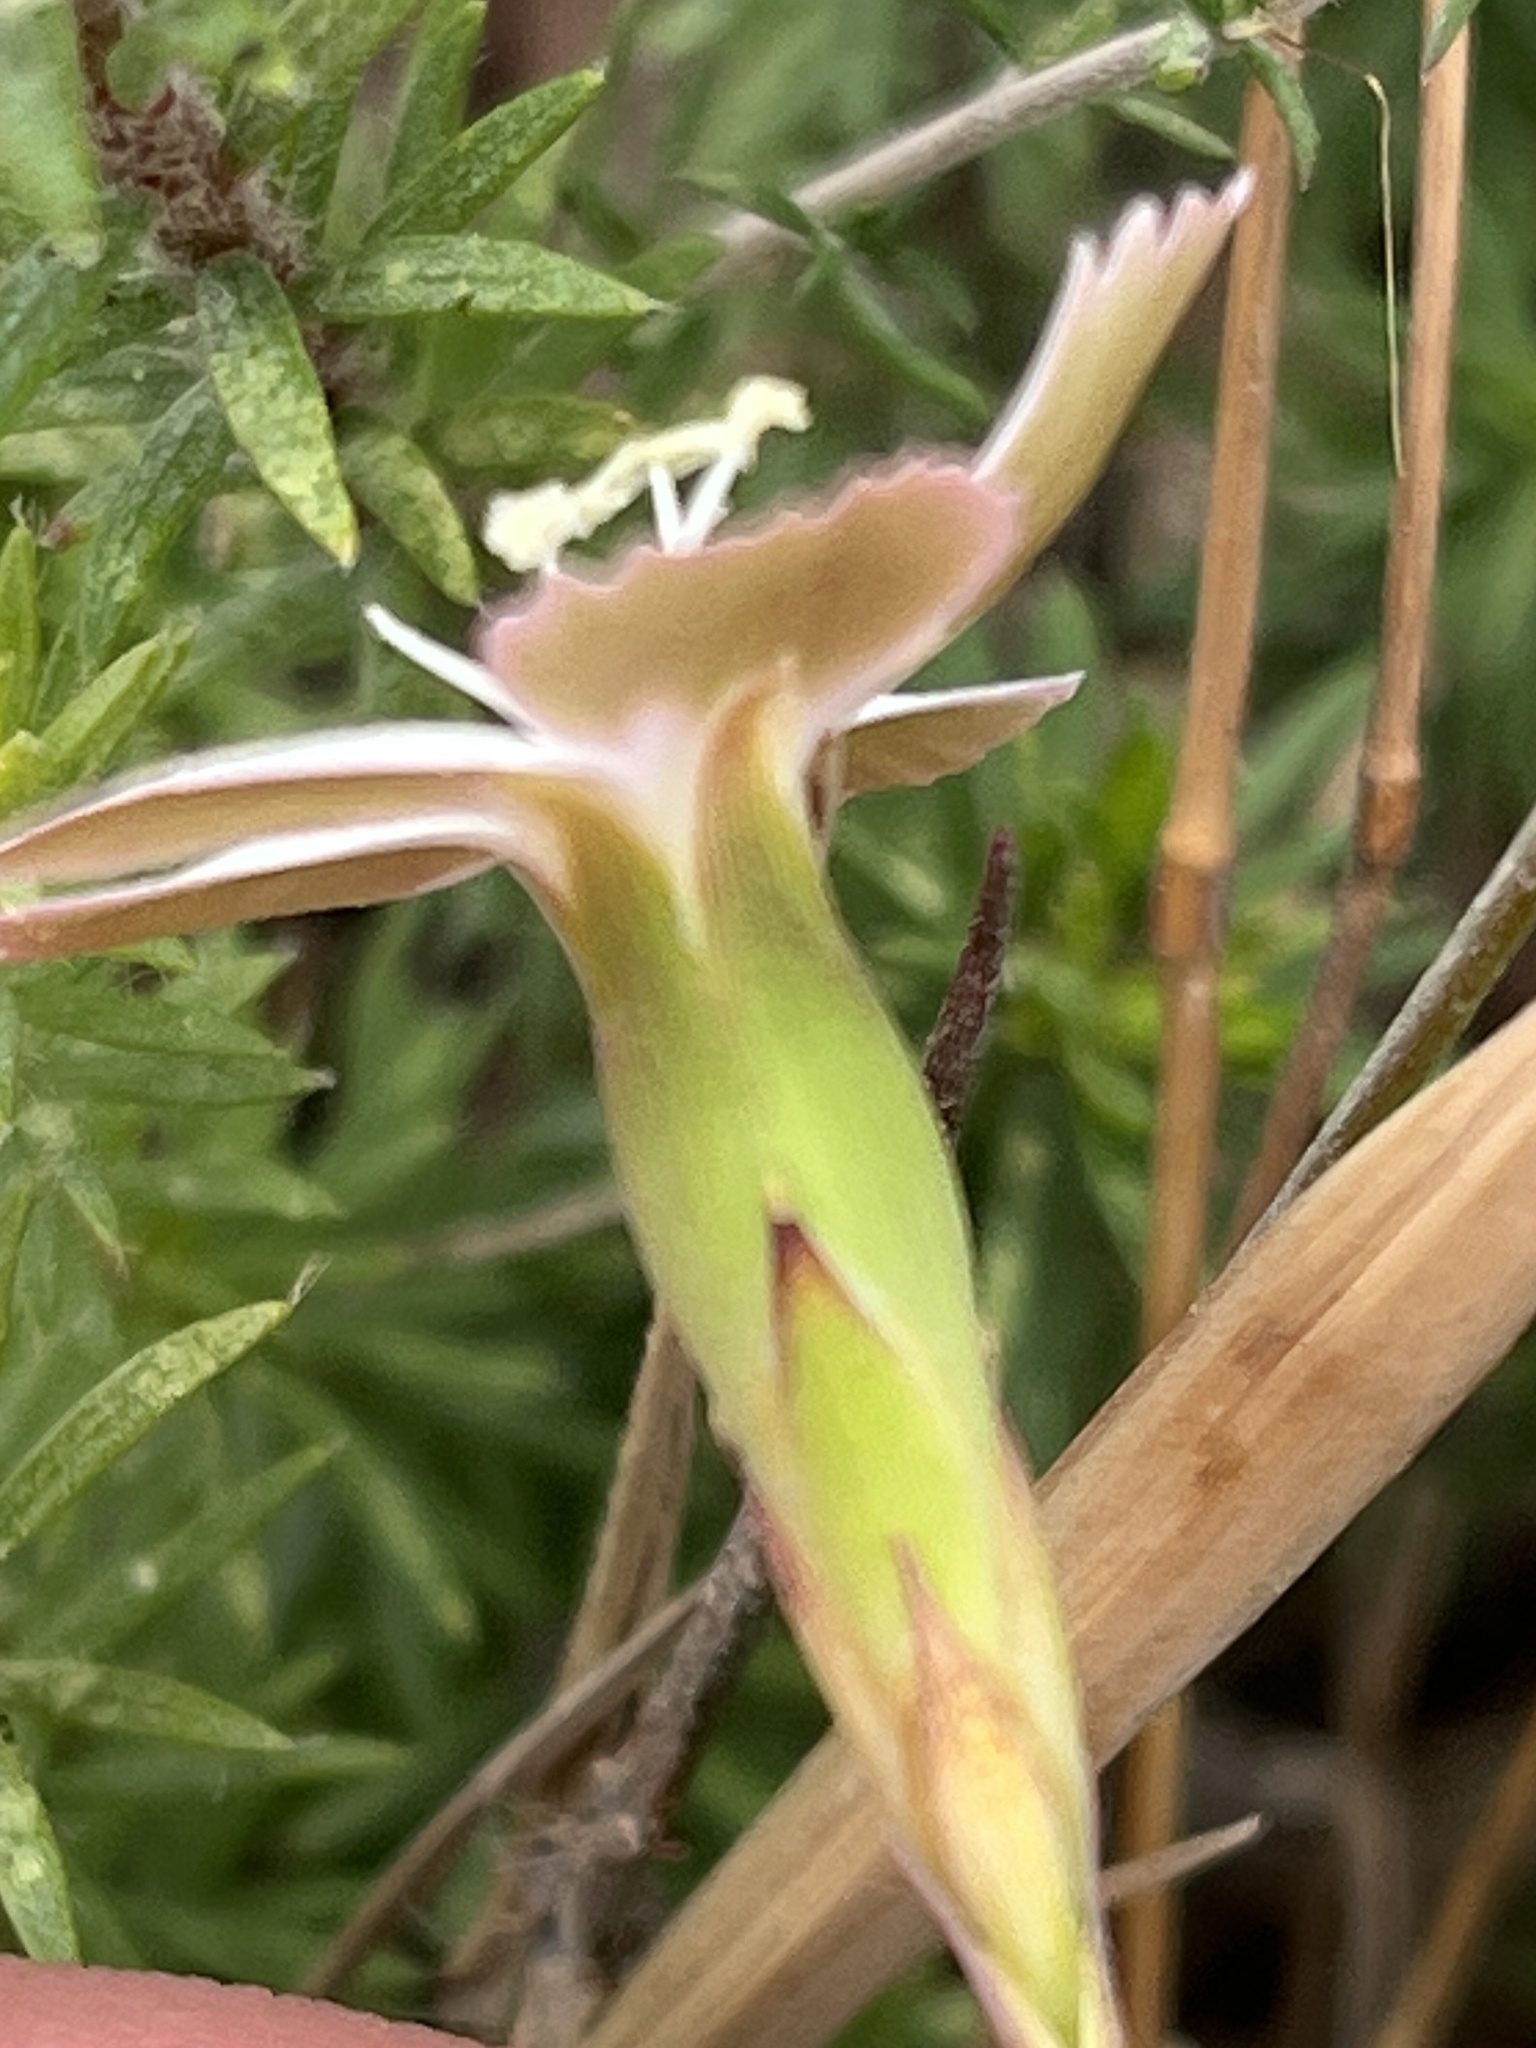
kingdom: Plantae
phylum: Tracheophyta
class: Magnoliopsida
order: Caryophyllales
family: Caryophyllaceae
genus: Dianthus
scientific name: Dianthus albens
